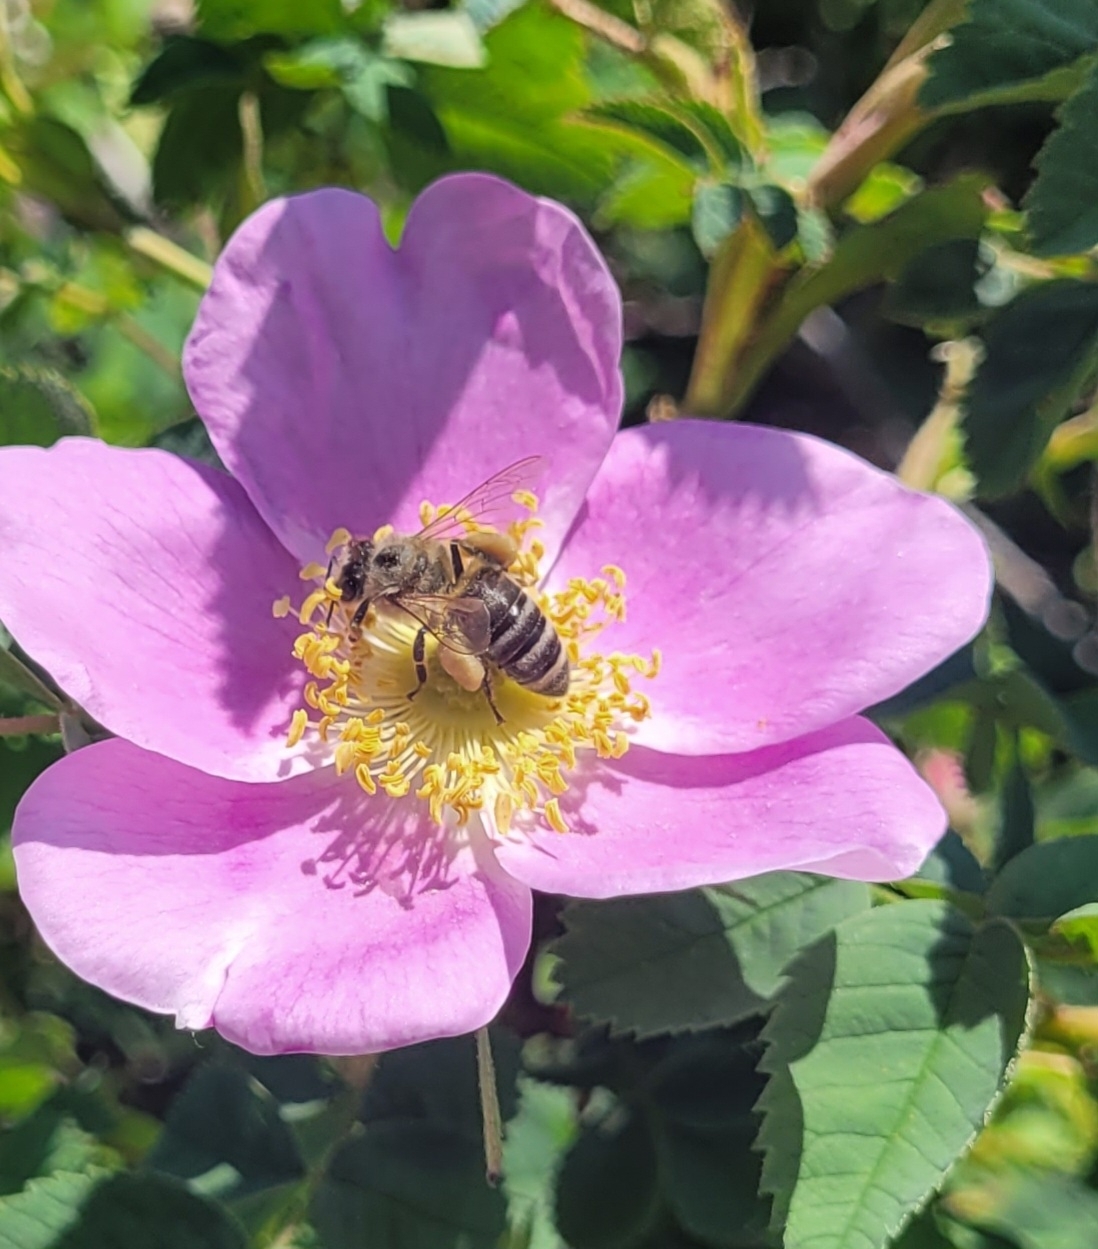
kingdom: Animalia
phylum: Arthropoda
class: Insecta
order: Hymenoptera
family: Apidae
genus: Apis
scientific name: Apis mellifera
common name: Honey bee
